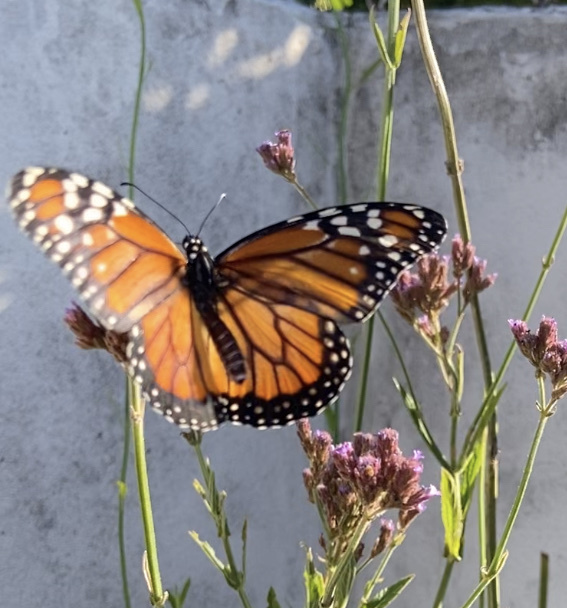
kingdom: Animalia
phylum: Arthropoda
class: Insecta
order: Lepidoptera
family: Nymphalidae
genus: Danaus
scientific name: Danaus erippus
